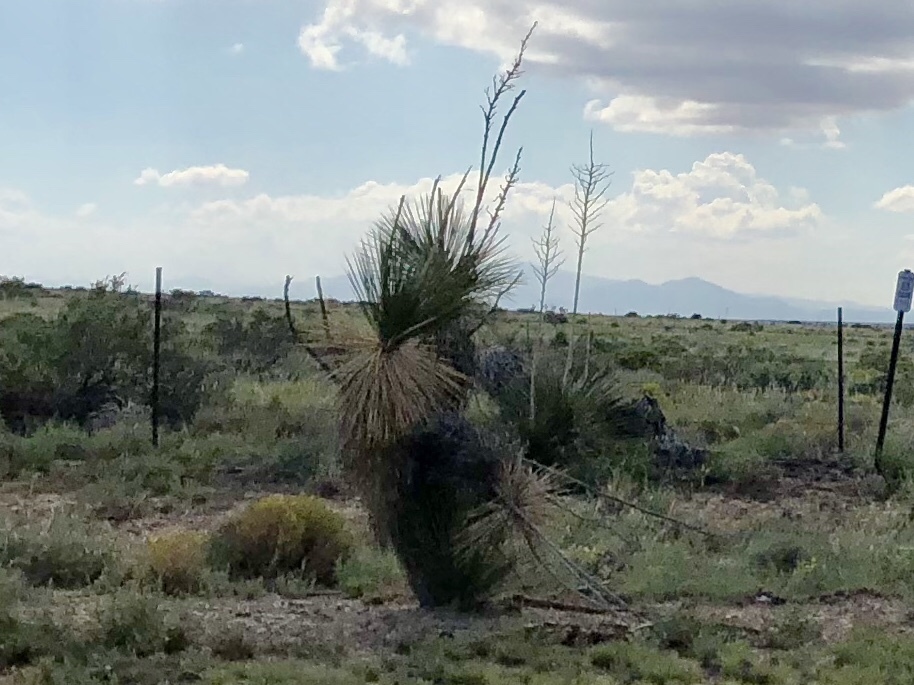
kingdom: Plantae
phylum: Tracheophyta
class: Liliopsida
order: Asparagales
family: Asparagaceae
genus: Yucca
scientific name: Yucca elata
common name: Palmella
